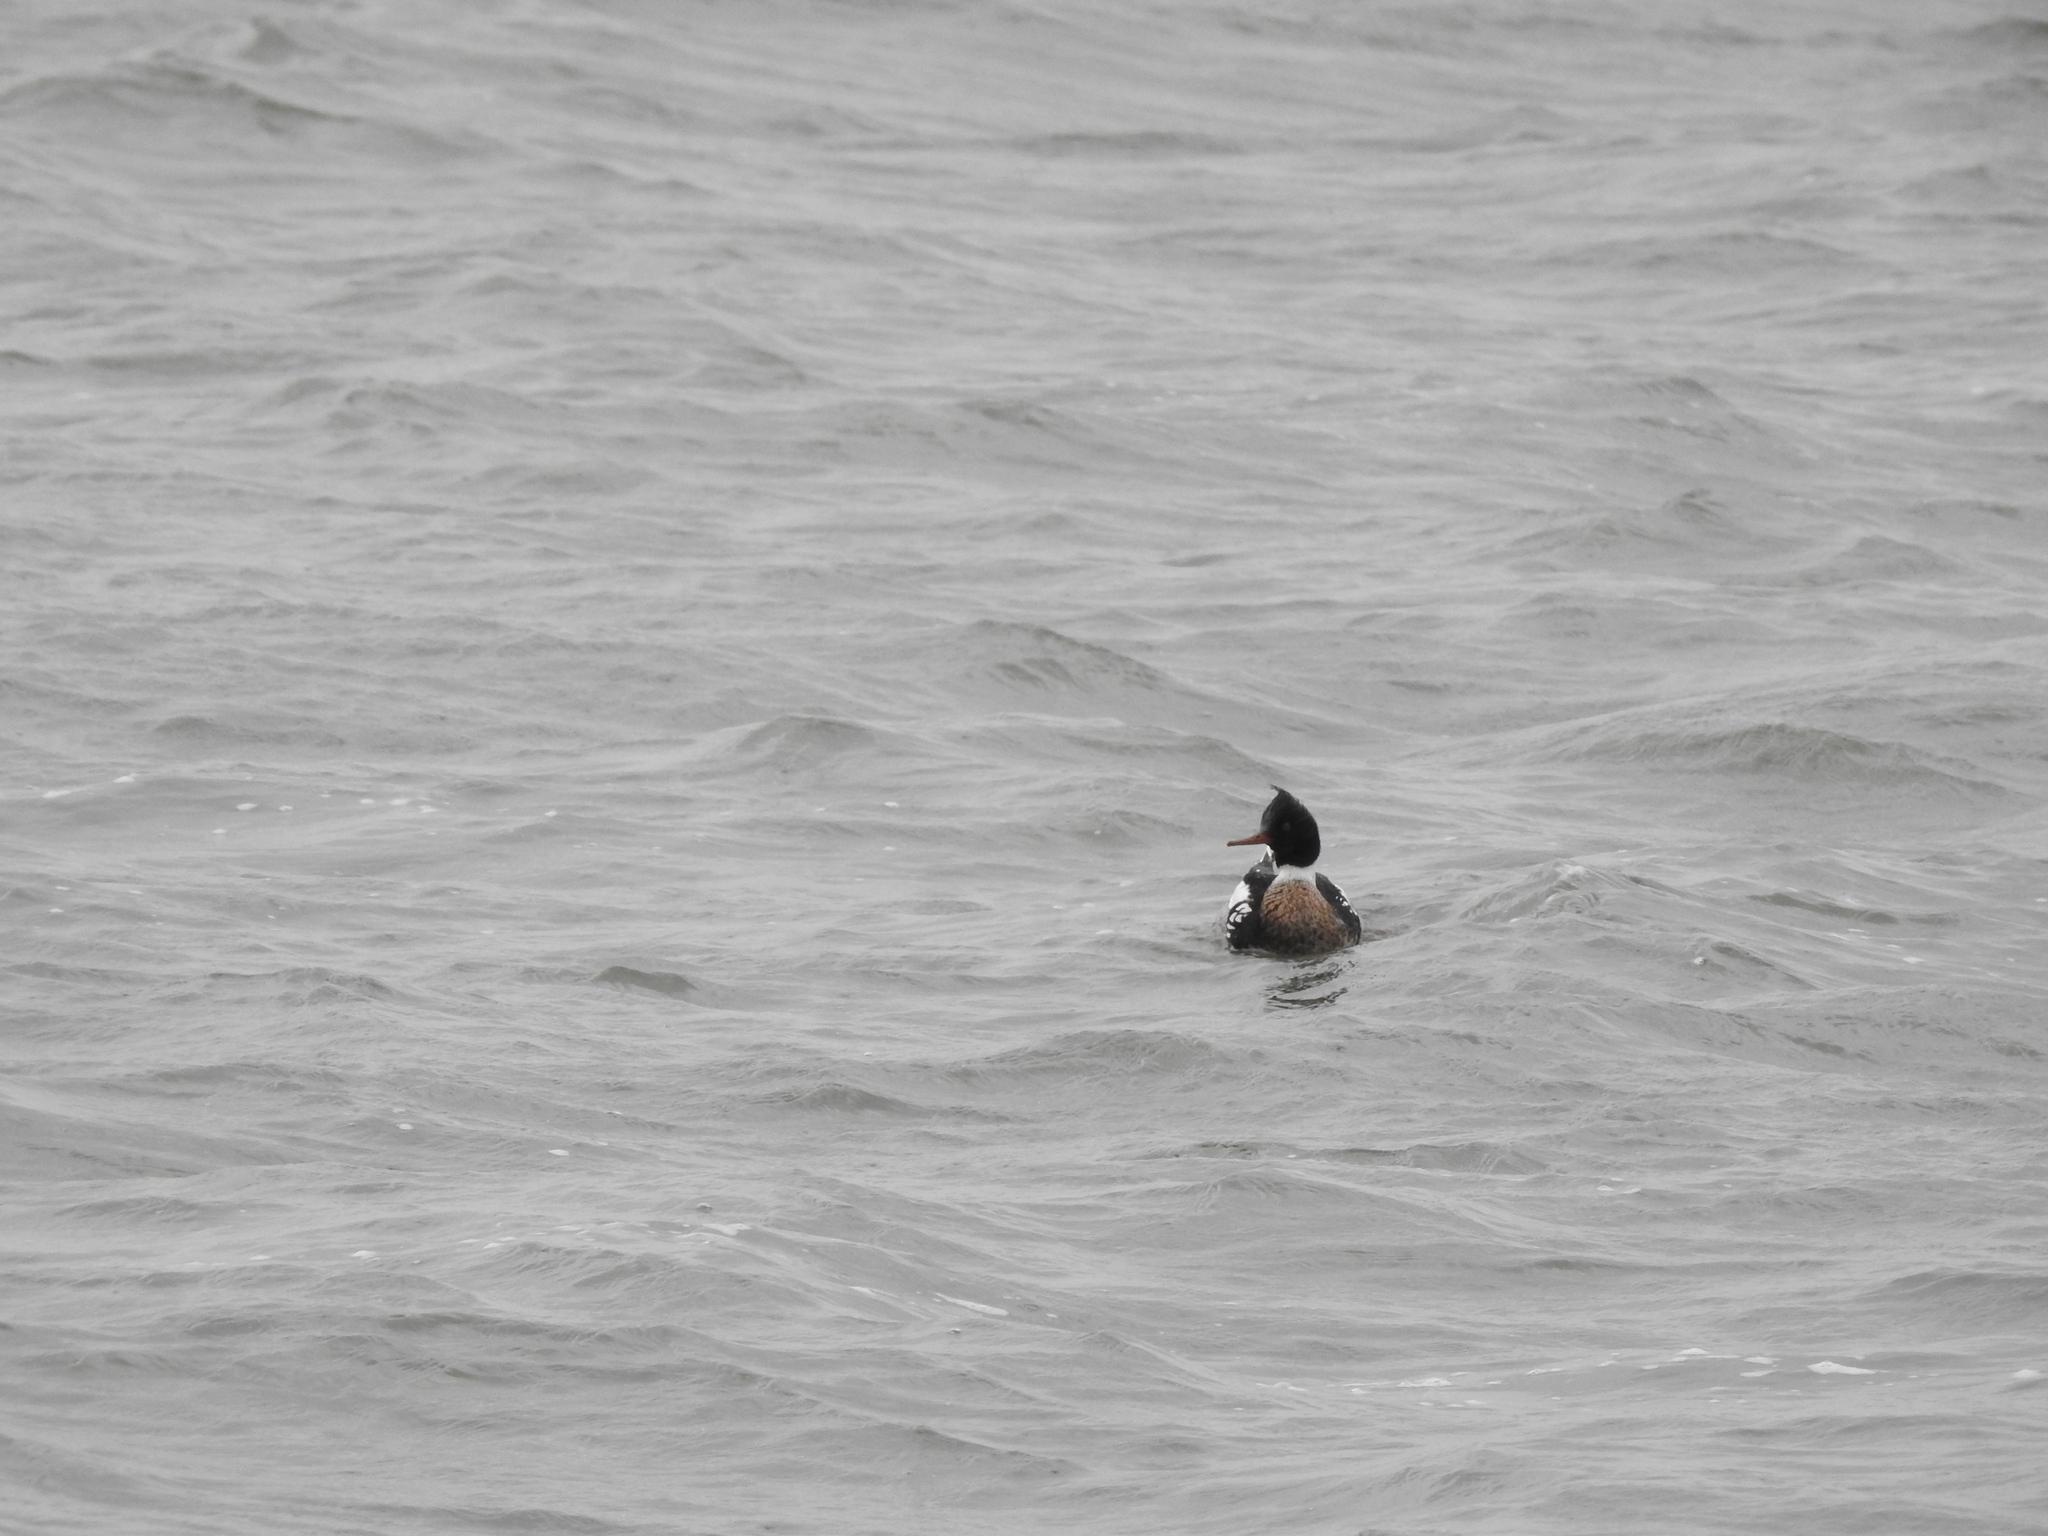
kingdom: Animalia
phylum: Chordata
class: Aves
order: Anseriformes
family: Anatidae
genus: Mergus
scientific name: Mergus serrator
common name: Red-breasted merganser
